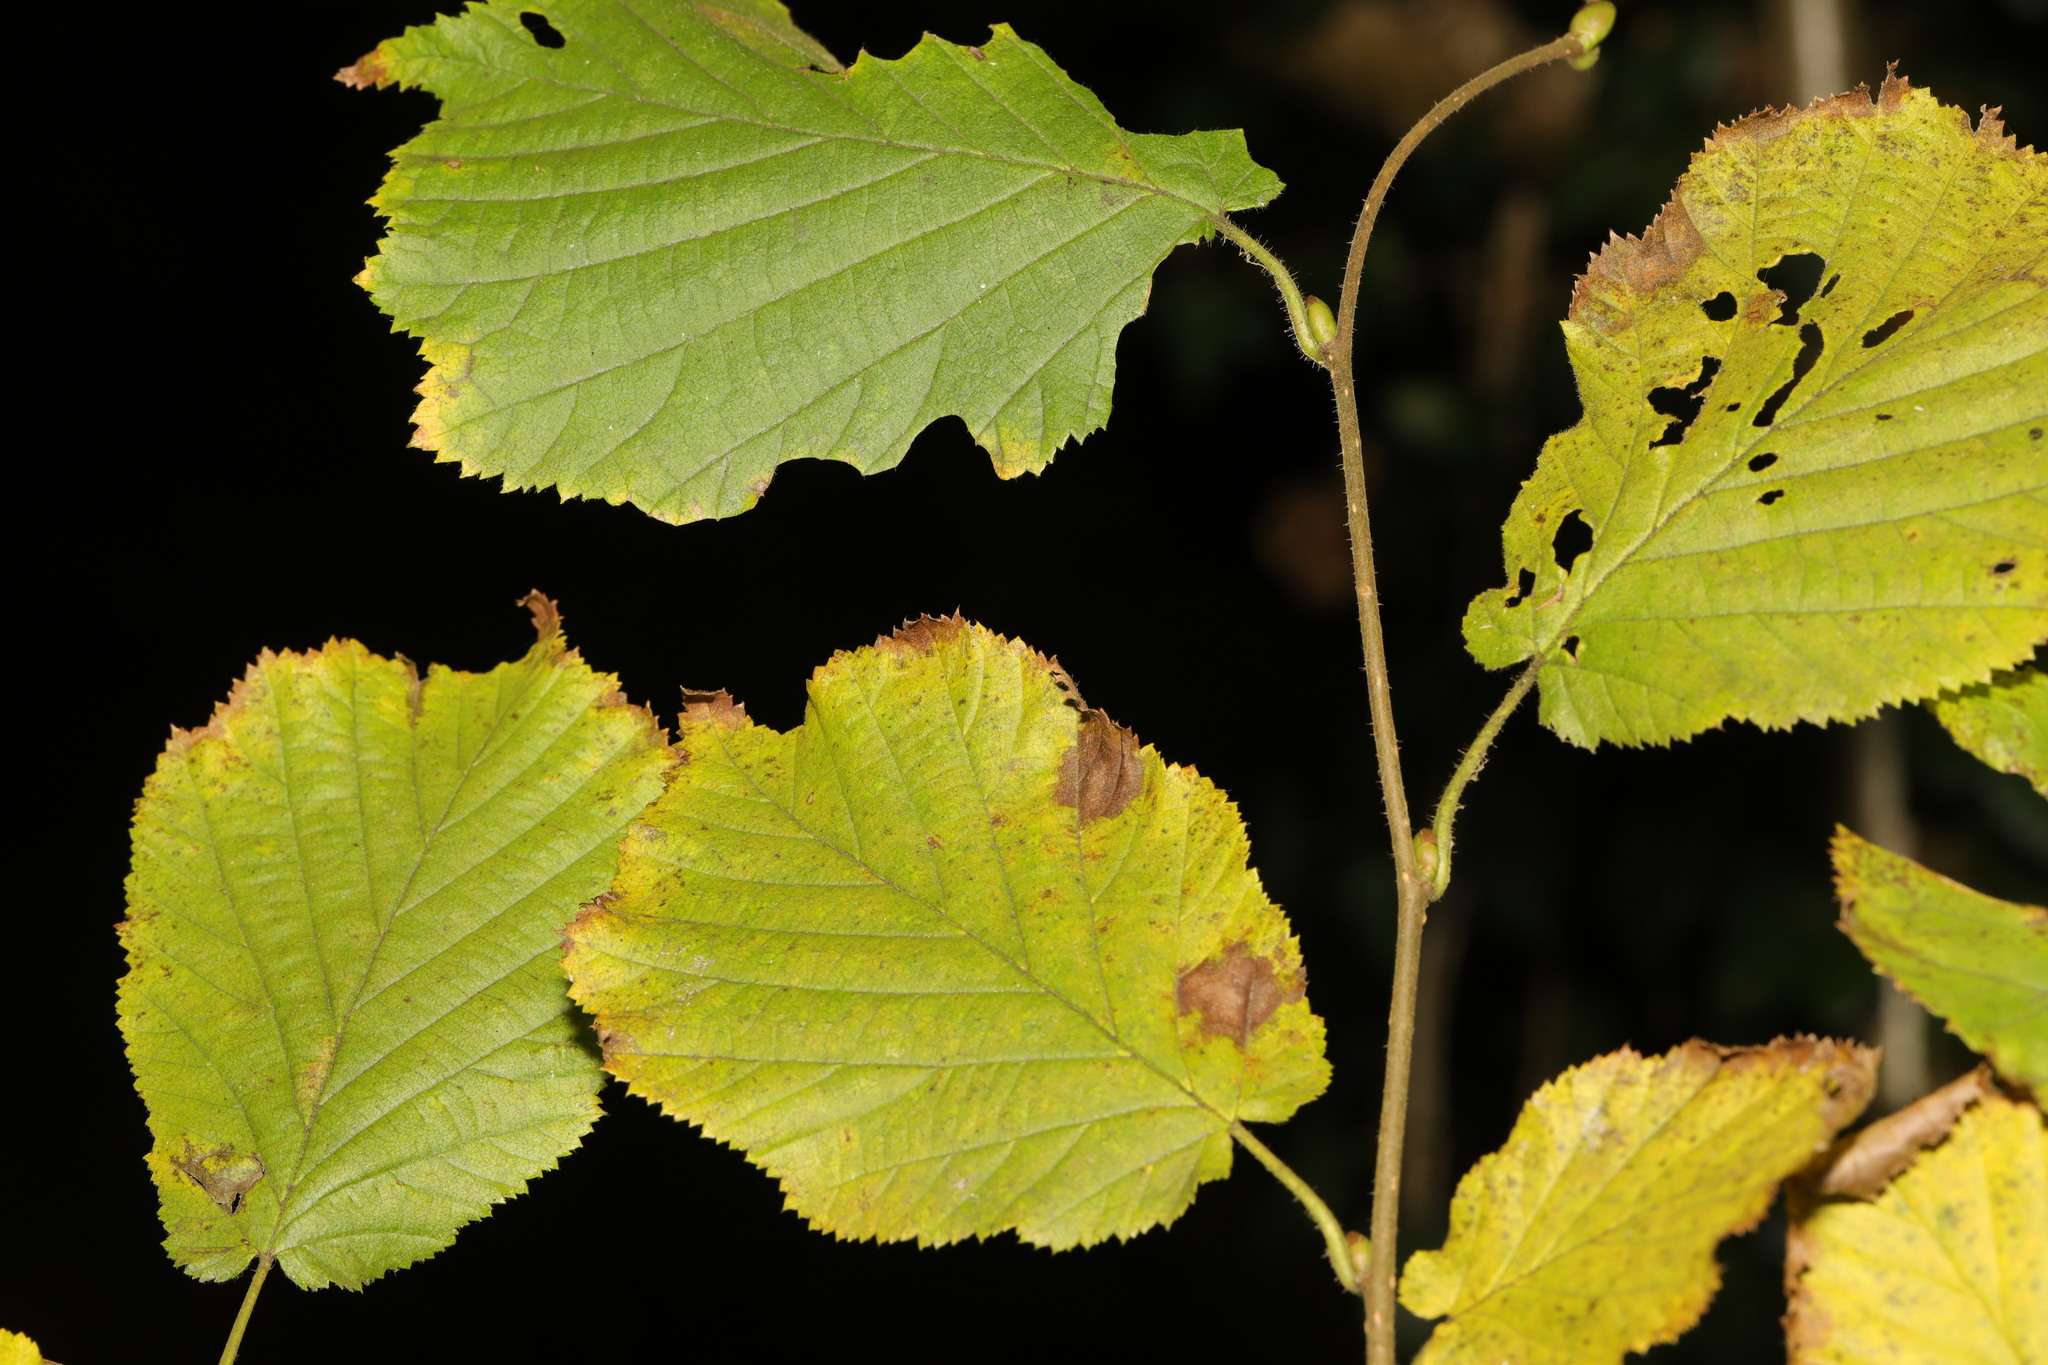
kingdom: Plantae
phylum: Tracheophyta
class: Magnoliopsida
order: Fagales
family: Betulaceae
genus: Corylus
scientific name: Corylus avellana
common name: European hazel
